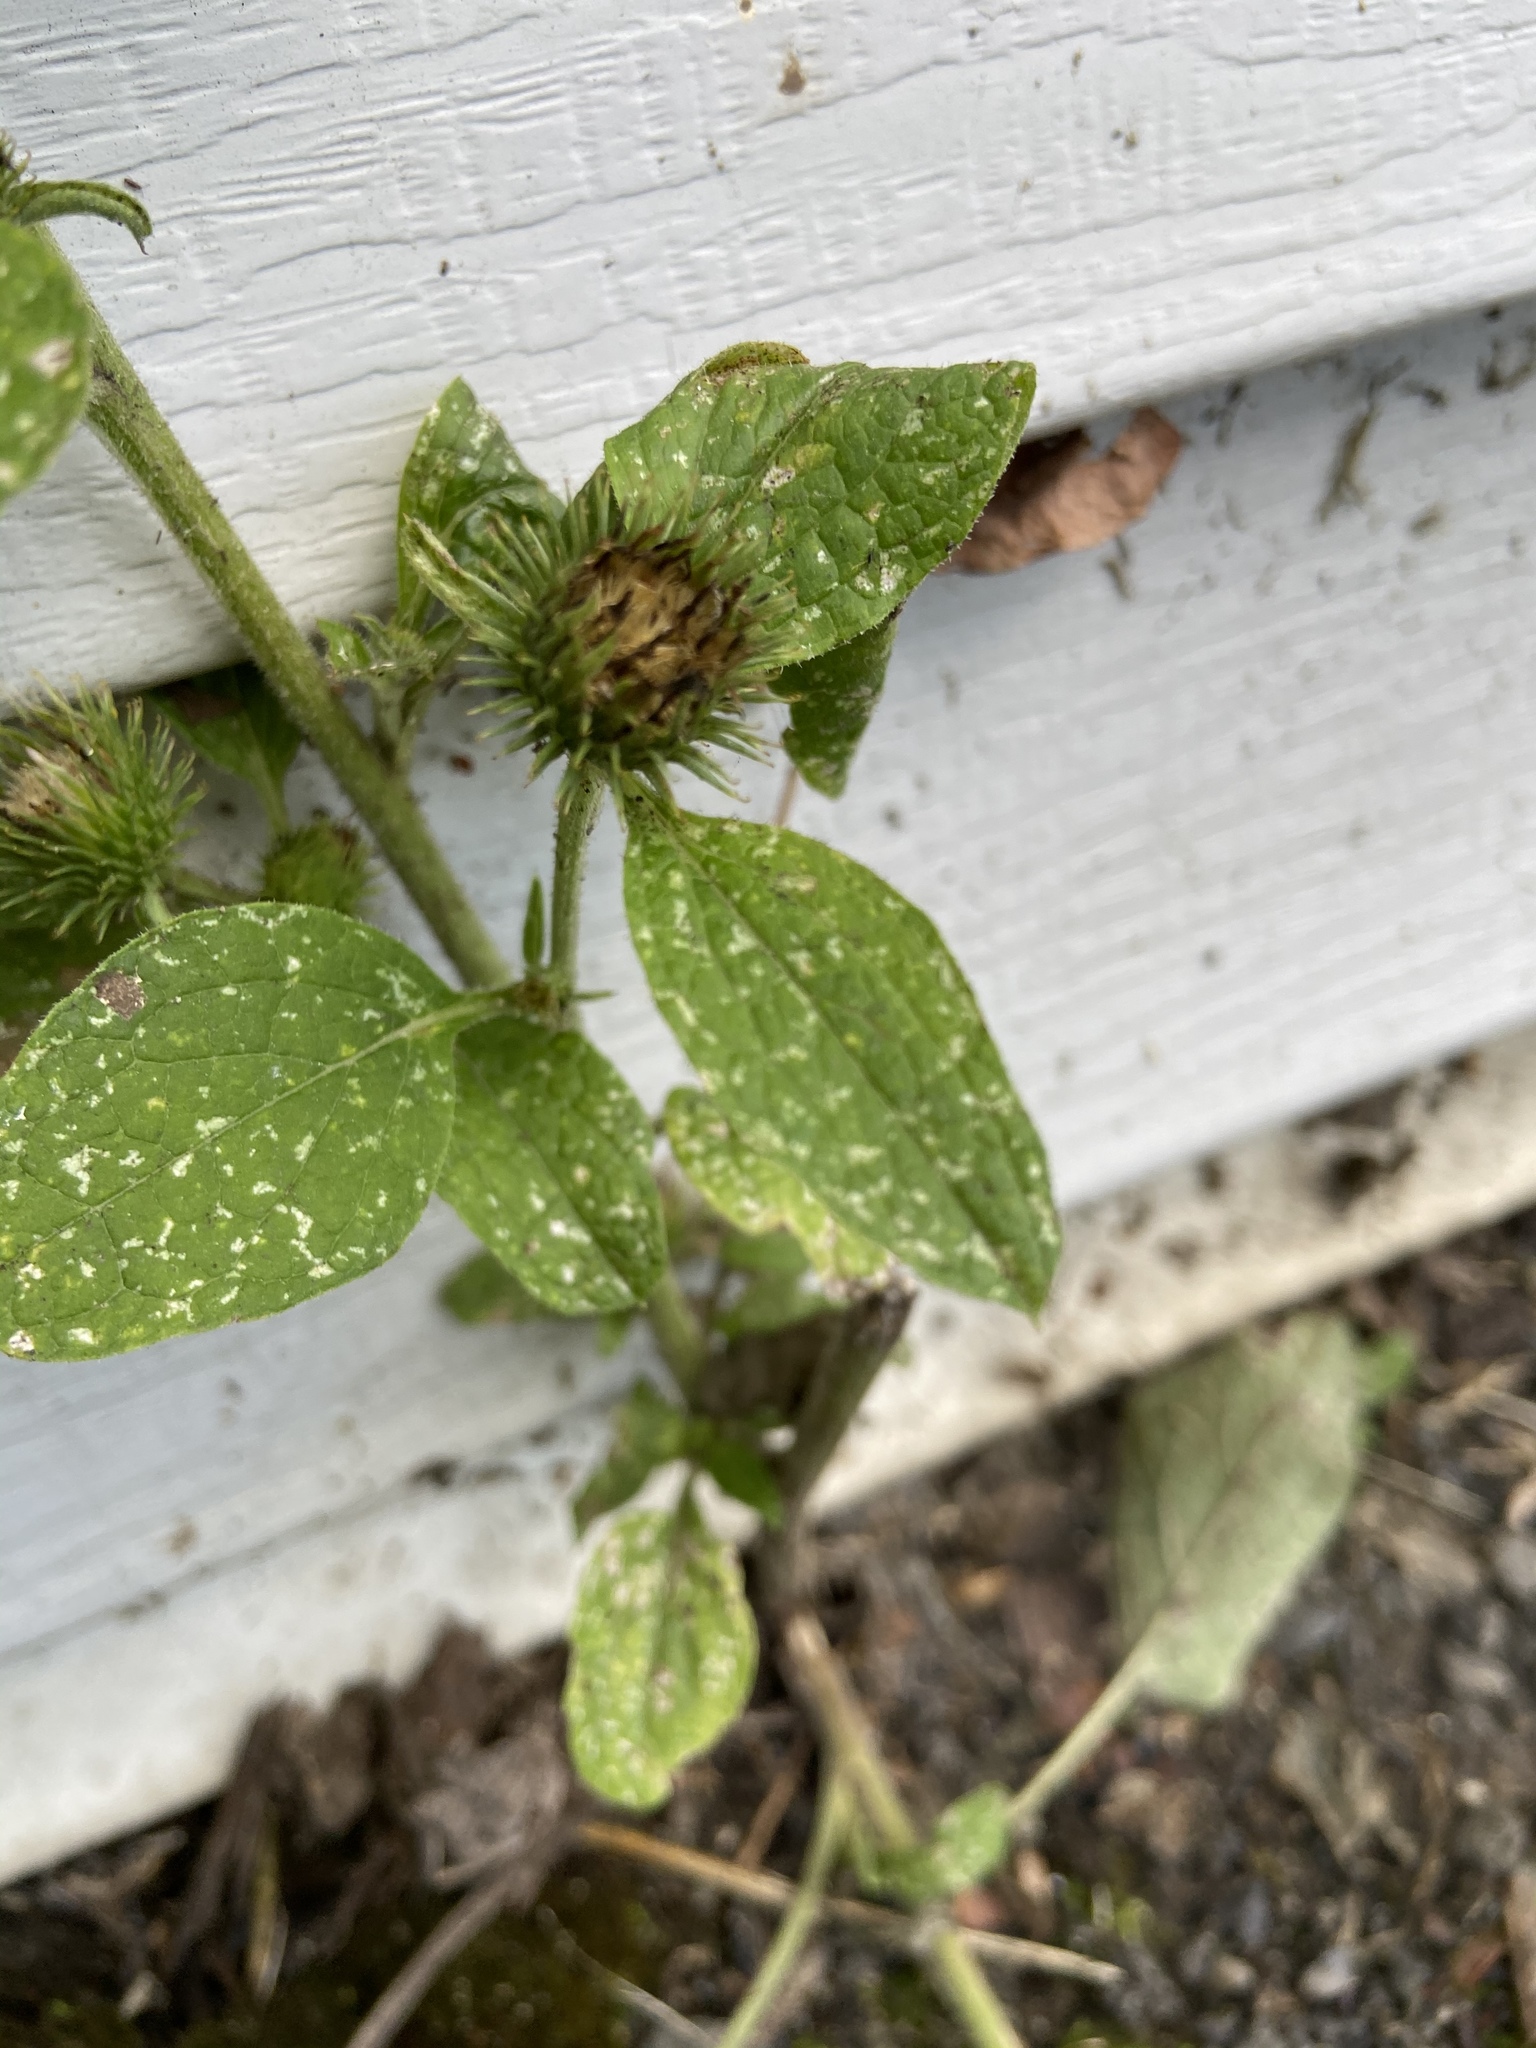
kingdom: Plantae
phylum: Tracheophyta
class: Magnoliopsida
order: Asterales
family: Asteraceae
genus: Arctium
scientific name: Arctium minus
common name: Lesser burdock
